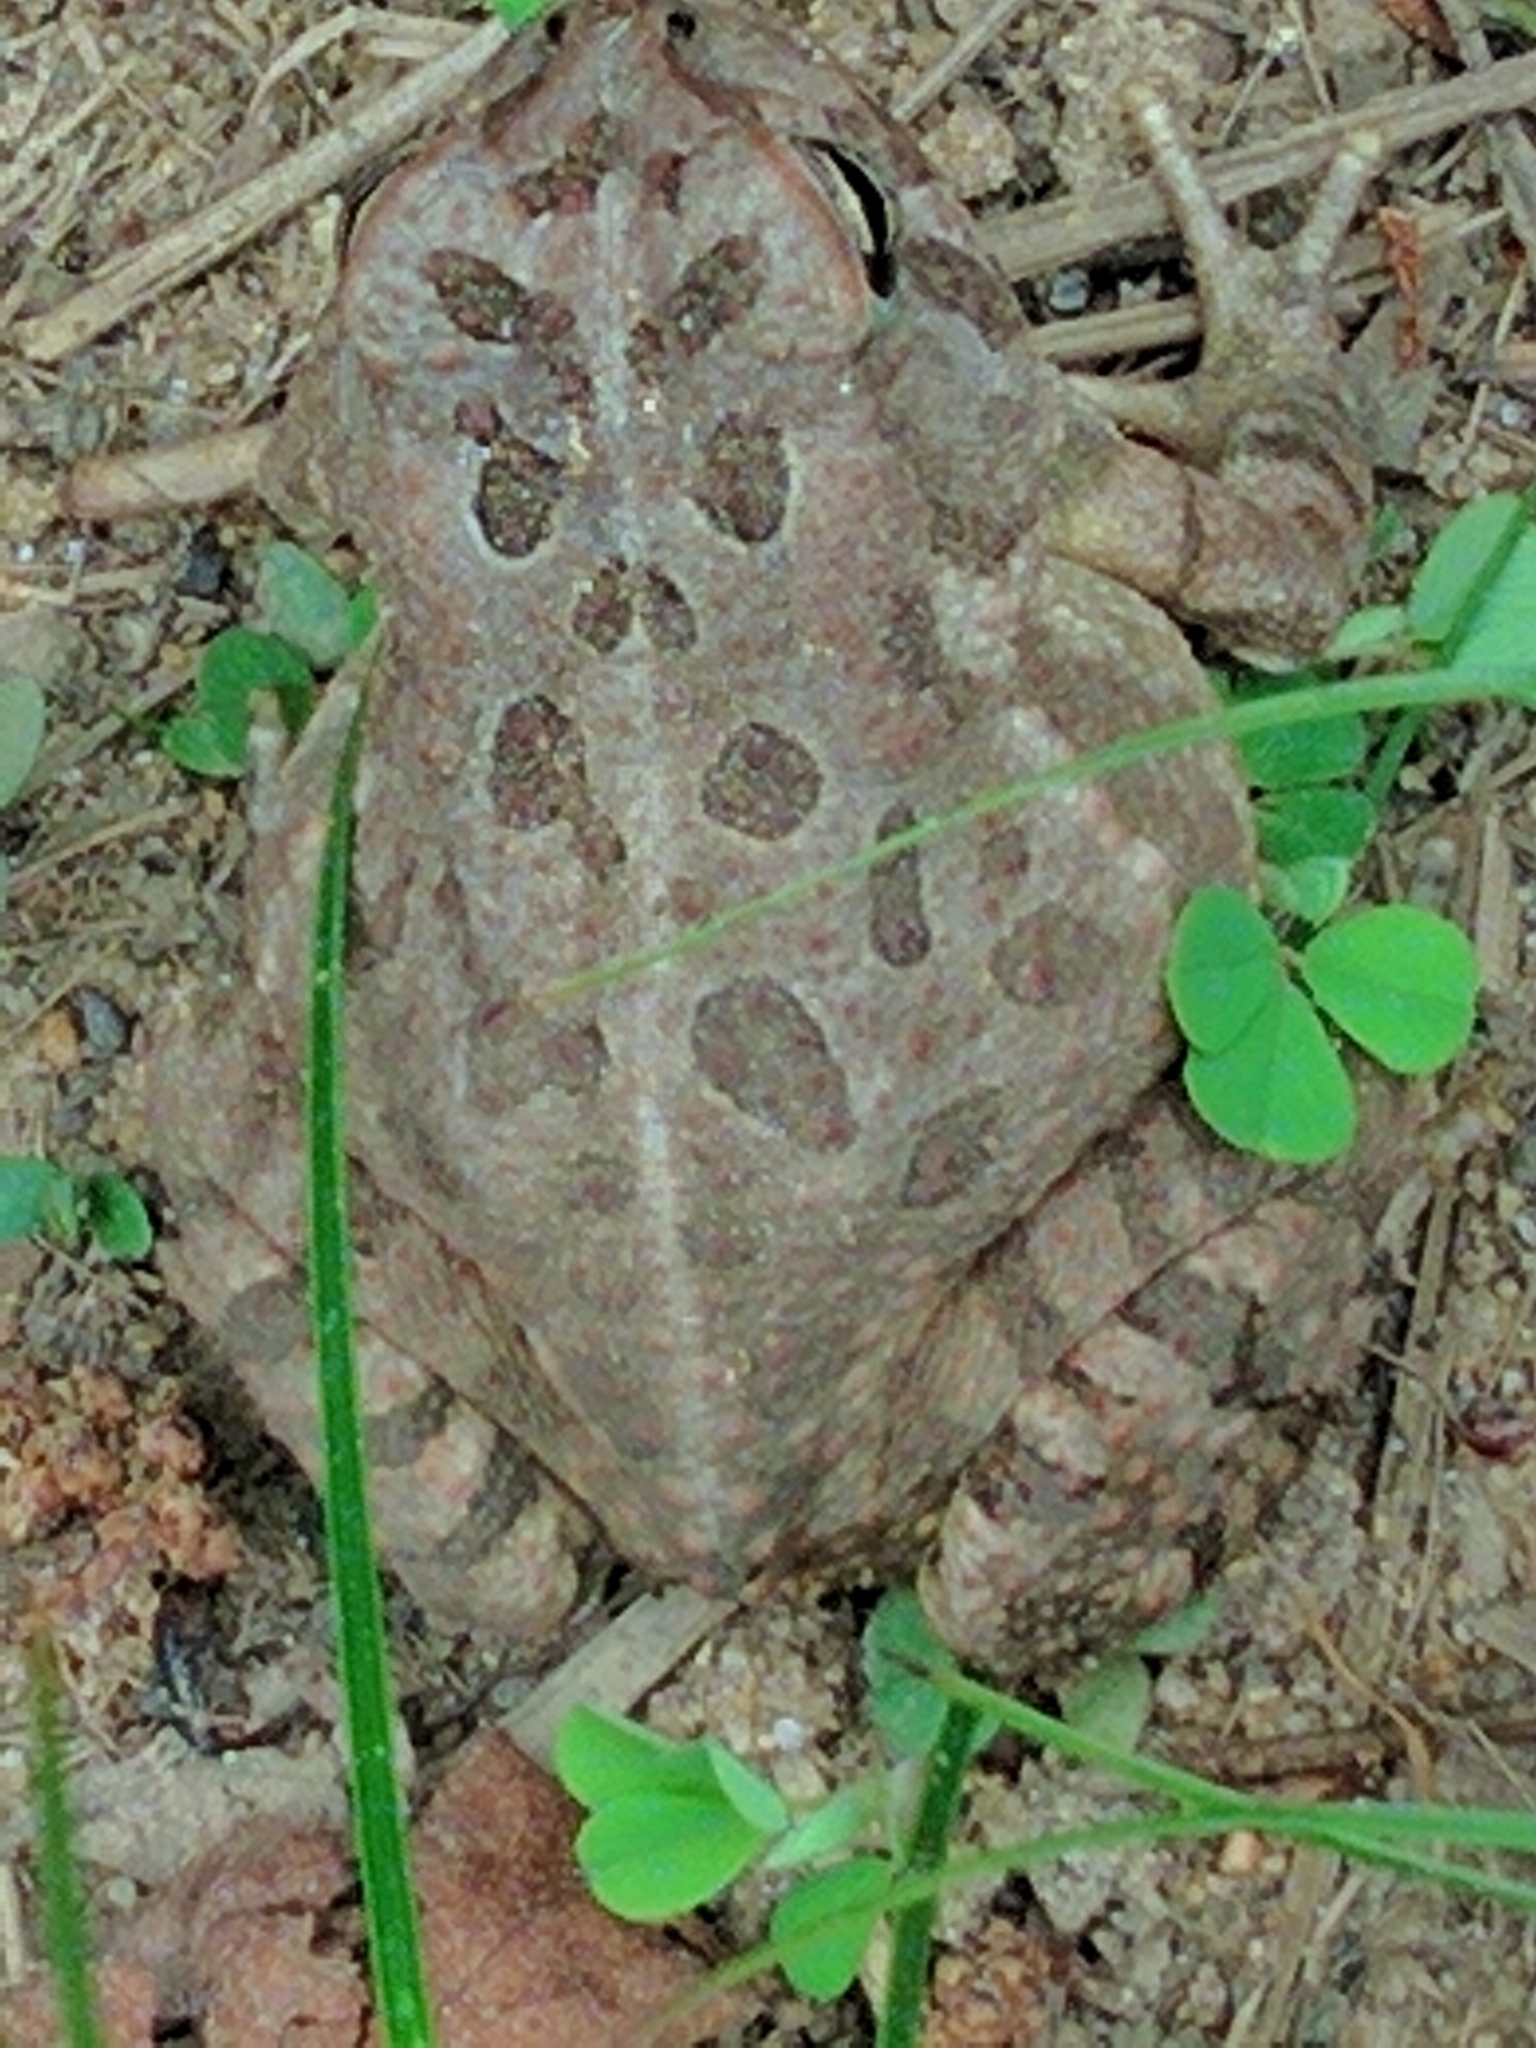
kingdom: Animalia
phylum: Chordata
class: Amphibia
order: Anura
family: Bufonidae
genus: Anaxyrus
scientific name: Anaxyrus fowleri
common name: Fowler's toad
